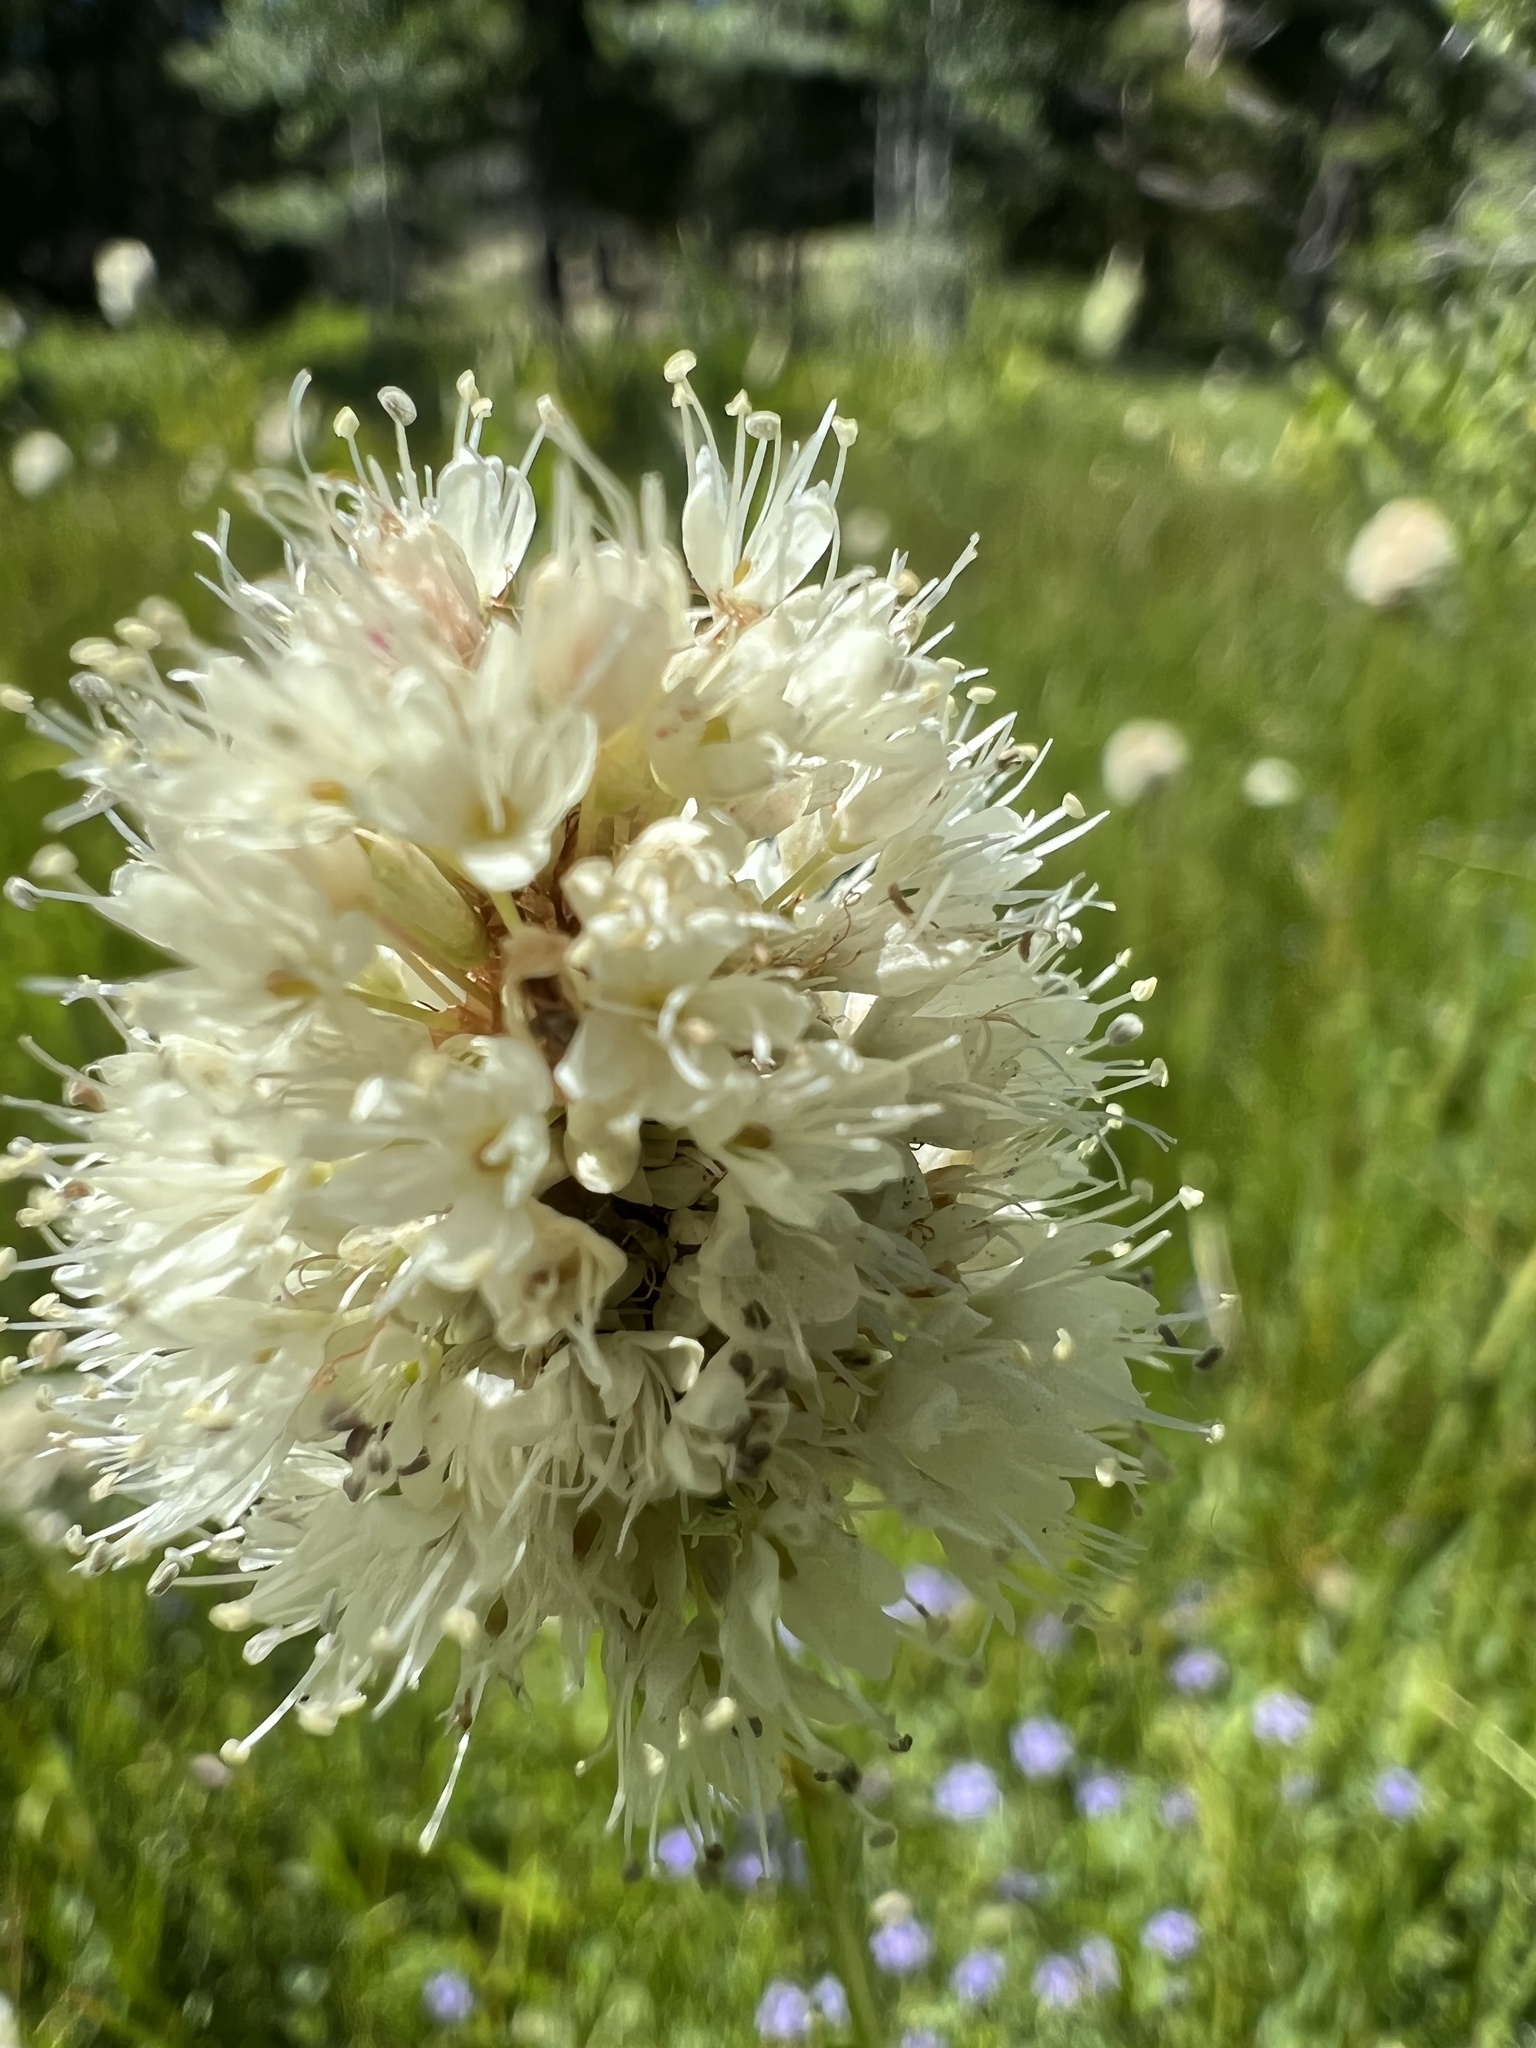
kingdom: Plantae
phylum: Tracheophyta
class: Magnoliopsida
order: Caryophyllales
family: Polygonaceae
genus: Bistorta
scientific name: Bistorta bistortoides
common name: American bistort
